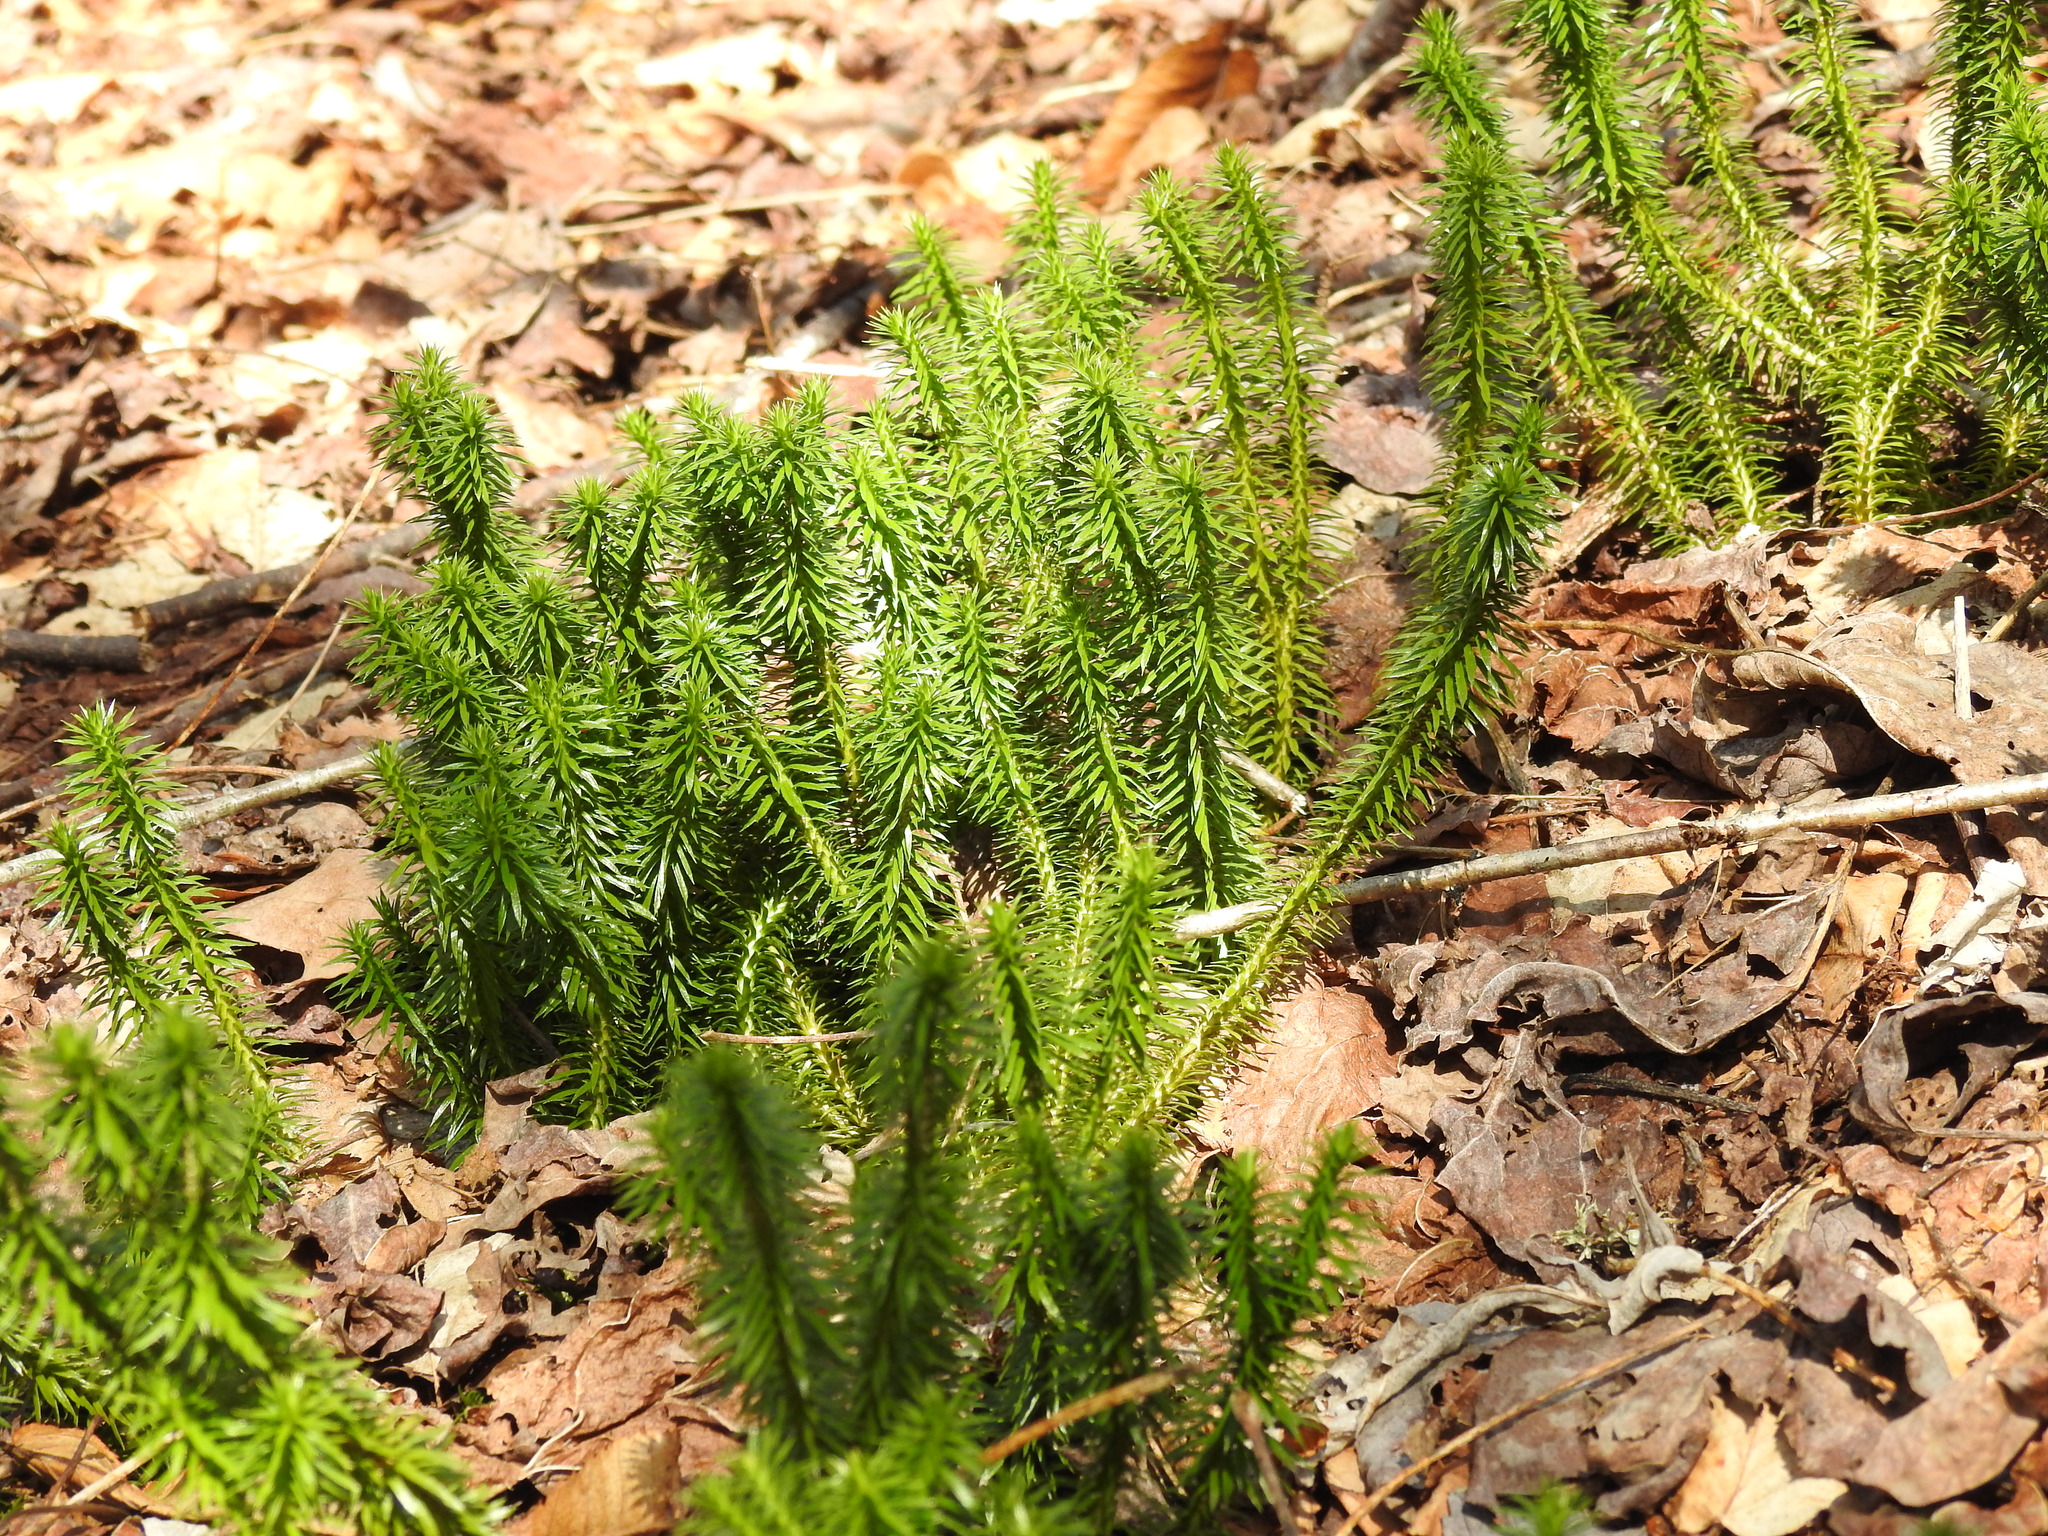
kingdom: Plantae
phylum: Tracheophyta
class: Lycopodiopsida
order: Lycopodiales
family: Lycopodiaceae
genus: Lycopodium
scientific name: Lycopodium clavatum
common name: Stag's-horn clubmoss
